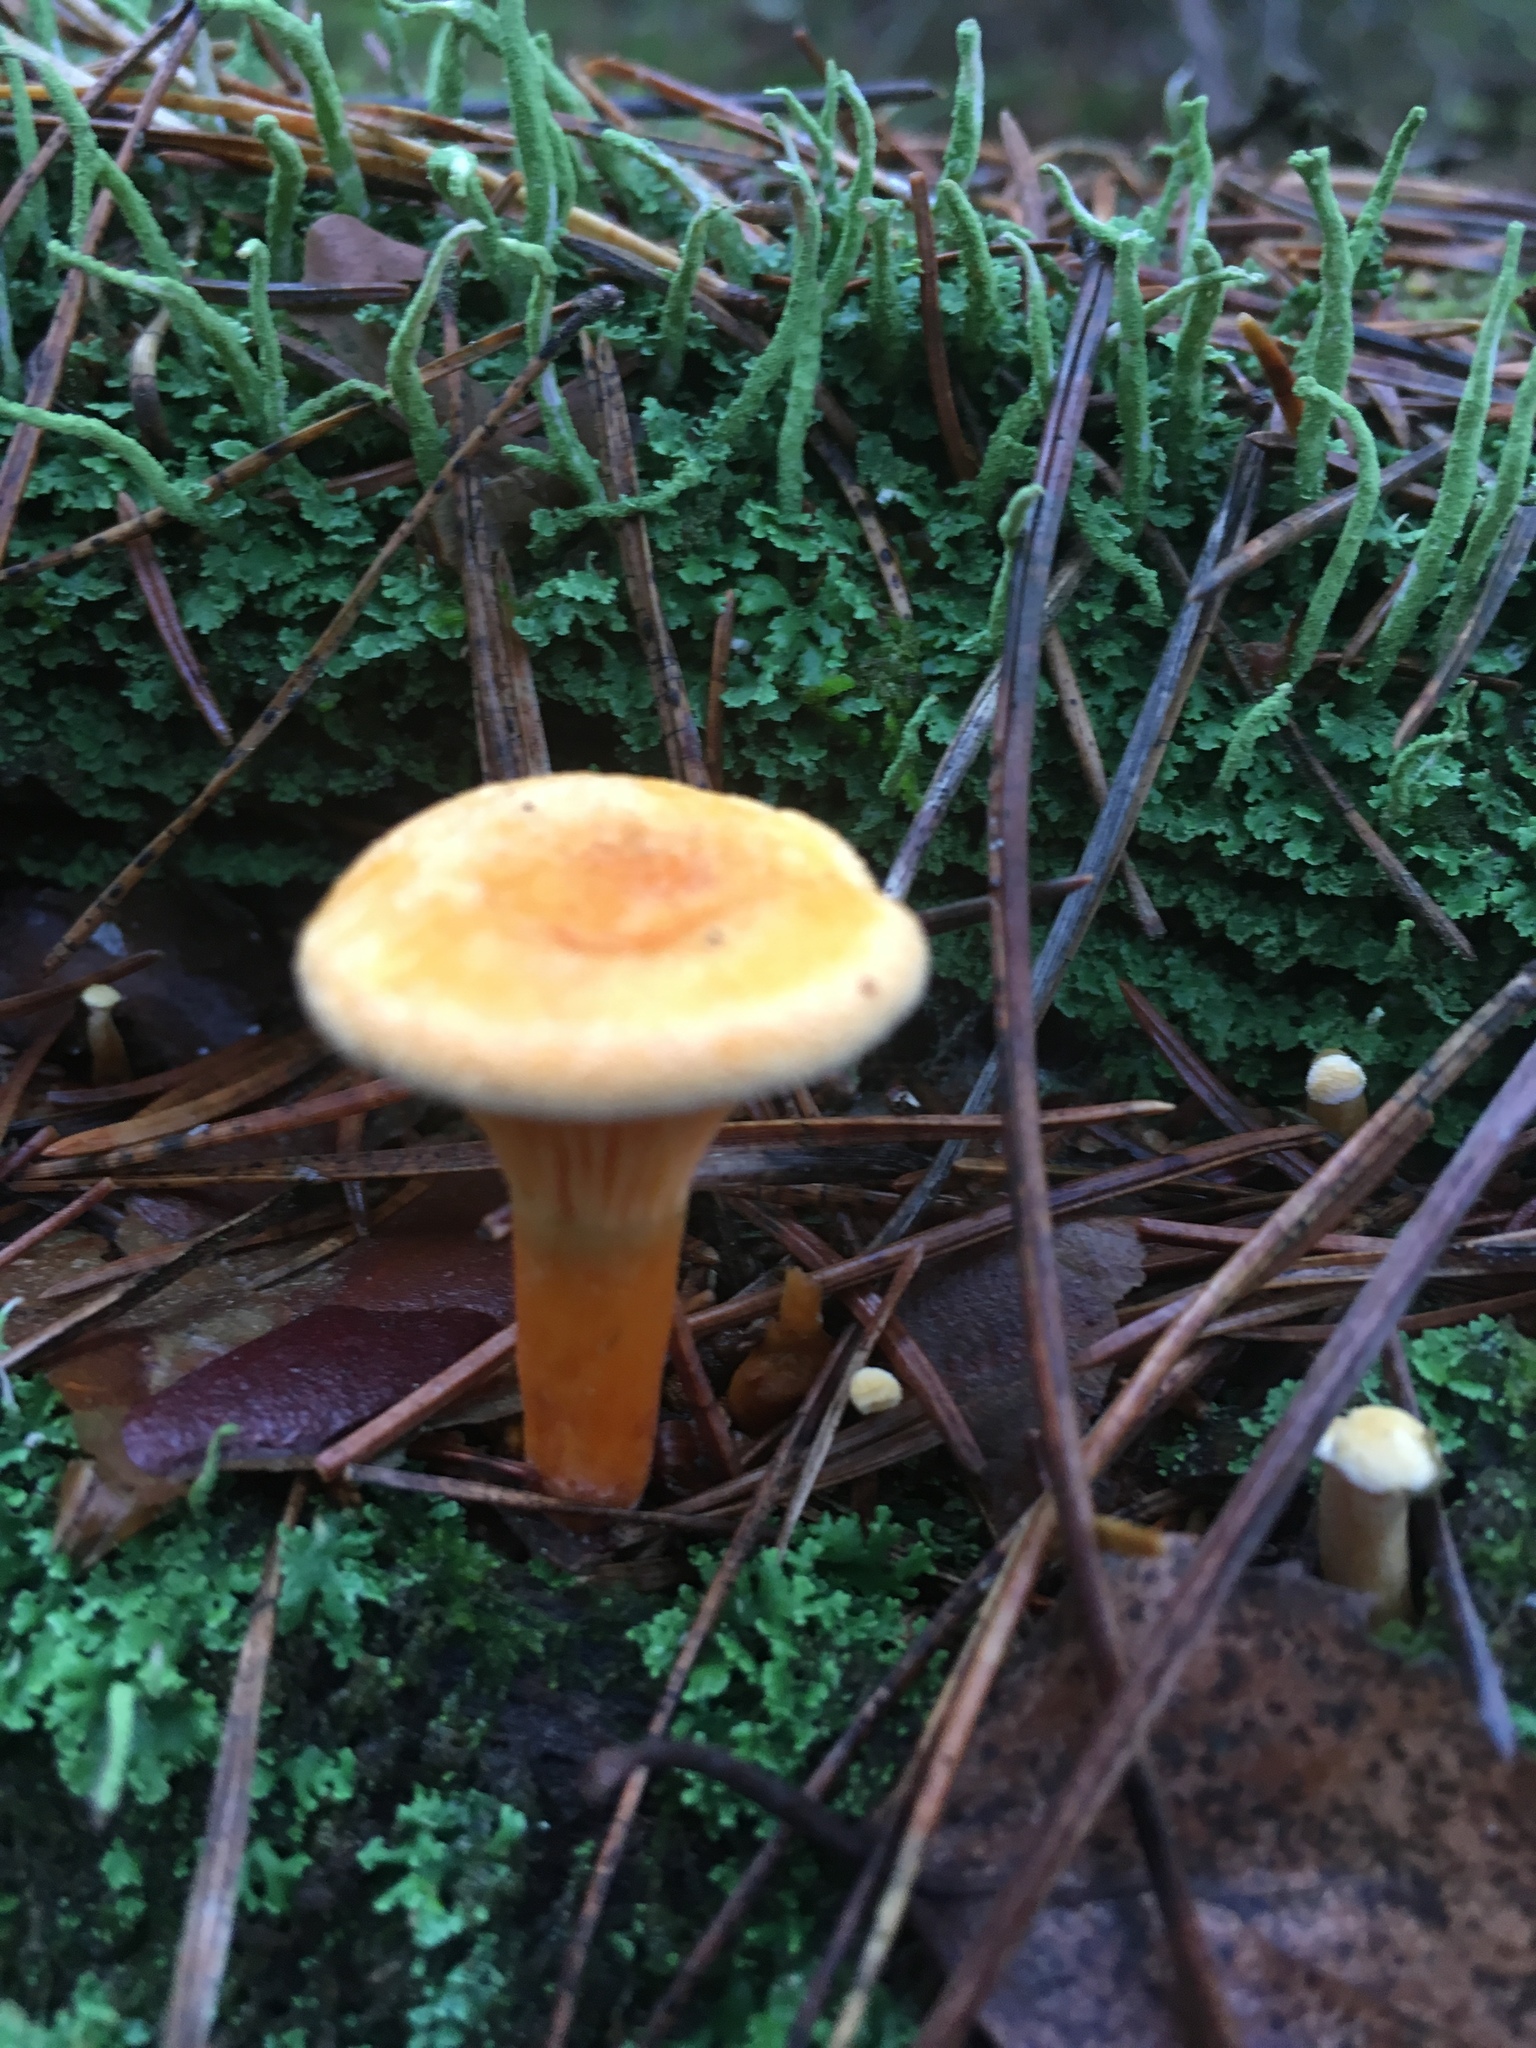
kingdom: Fungi
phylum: Basidiomycota
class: Agaricomycetes
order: Boletales
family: Hygrophoropsidaceae
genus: Hygrophoropsis
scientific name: Hygrophoropsis aurantiaca
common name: False chanterelle
